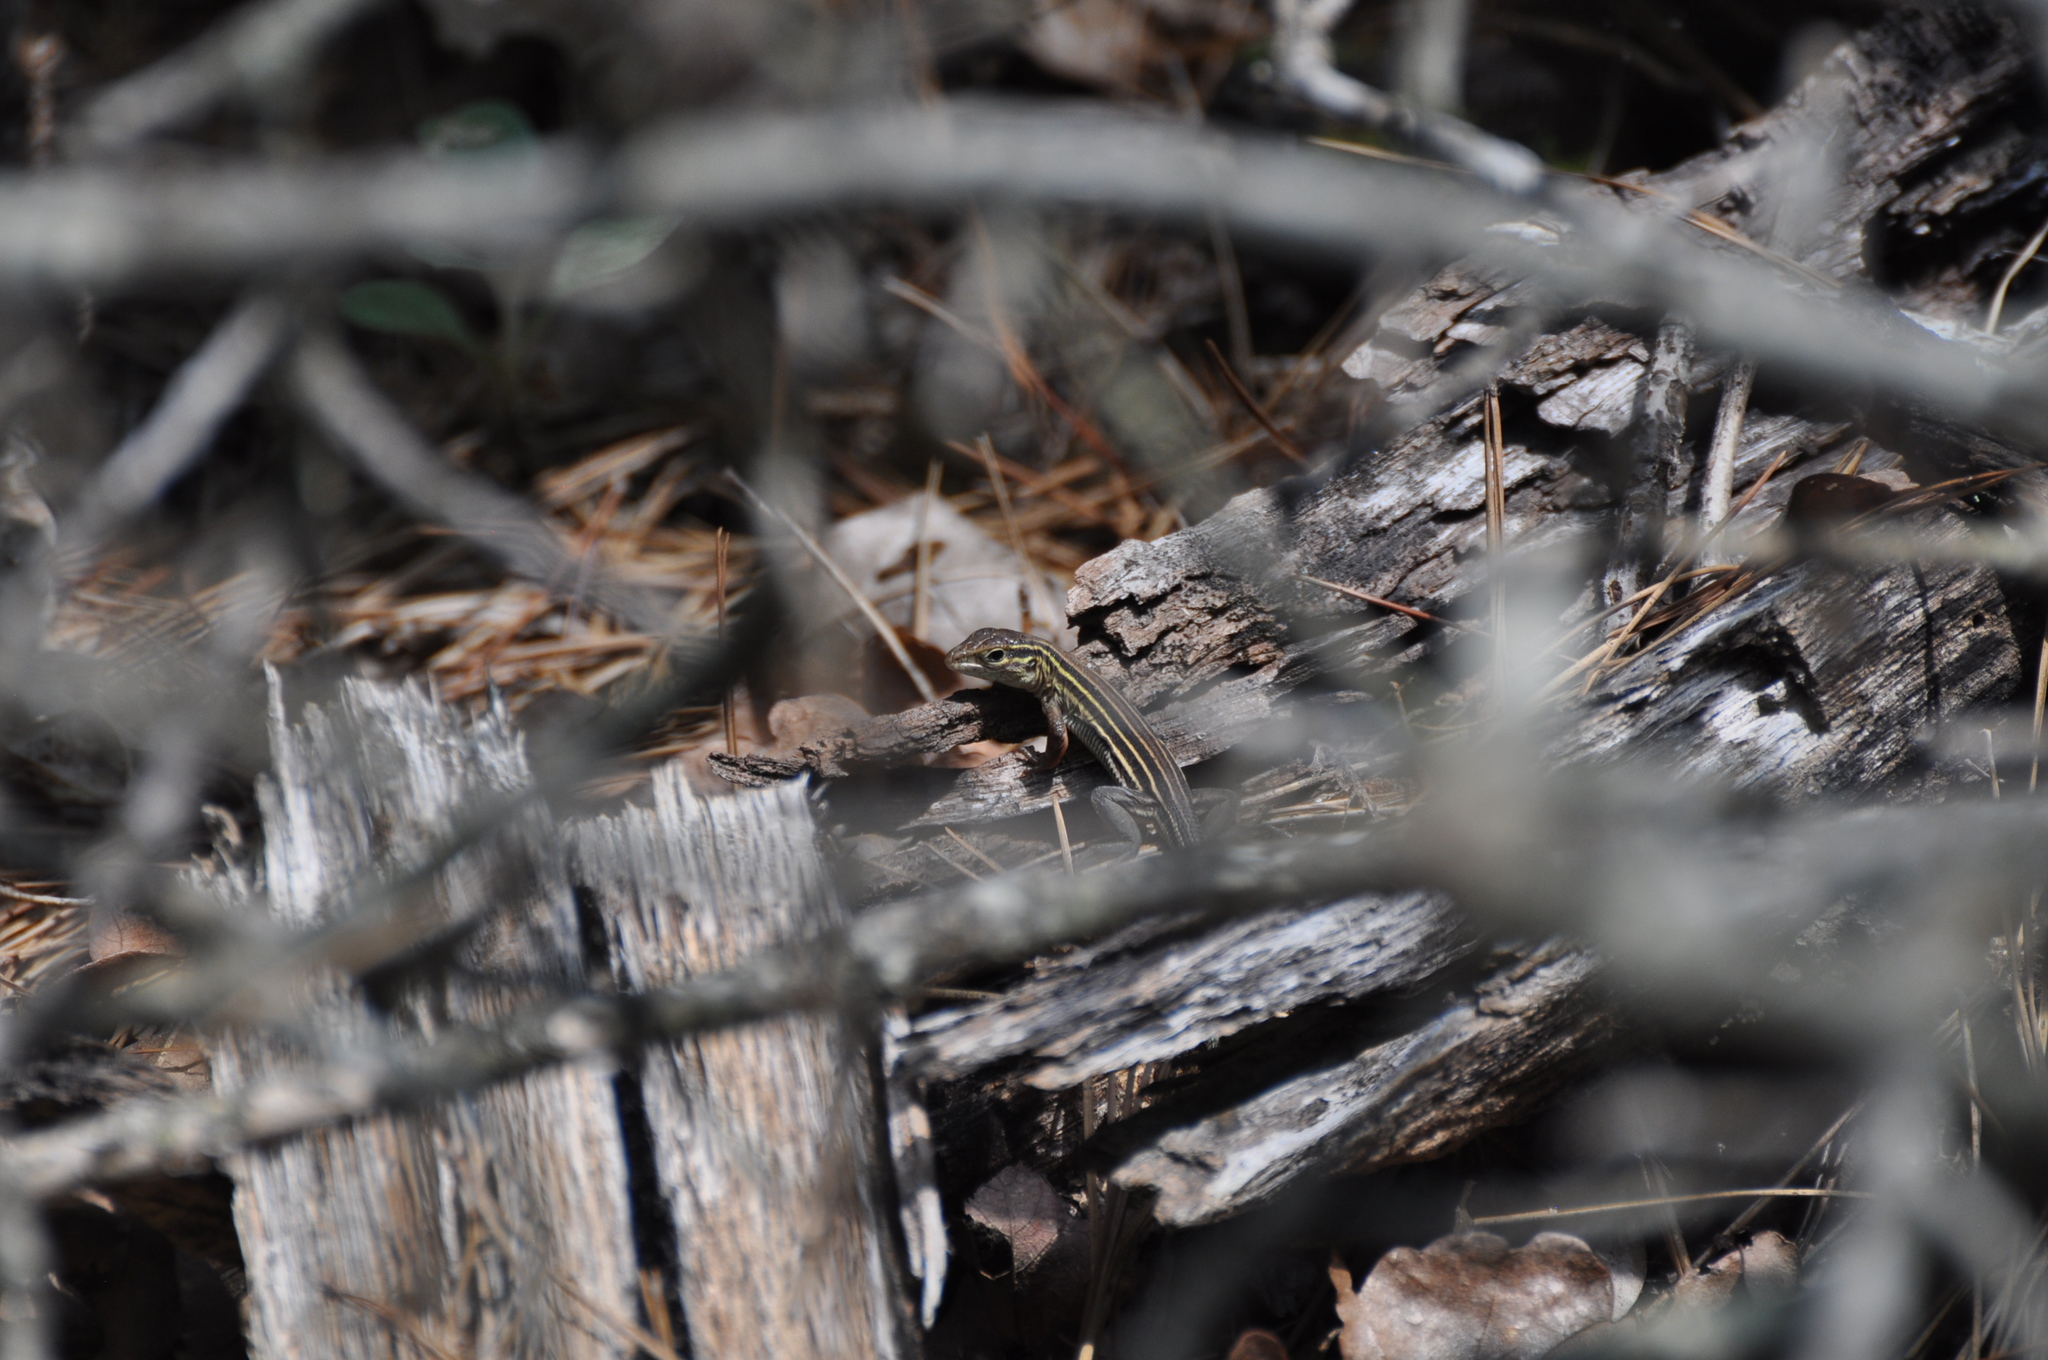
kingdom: Animalia
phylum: Chordata
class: Squamata
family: Teiidae
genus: Aspidoscelis
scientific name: Aspidoscelis sexlineatus
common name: Six-lined racerunner
